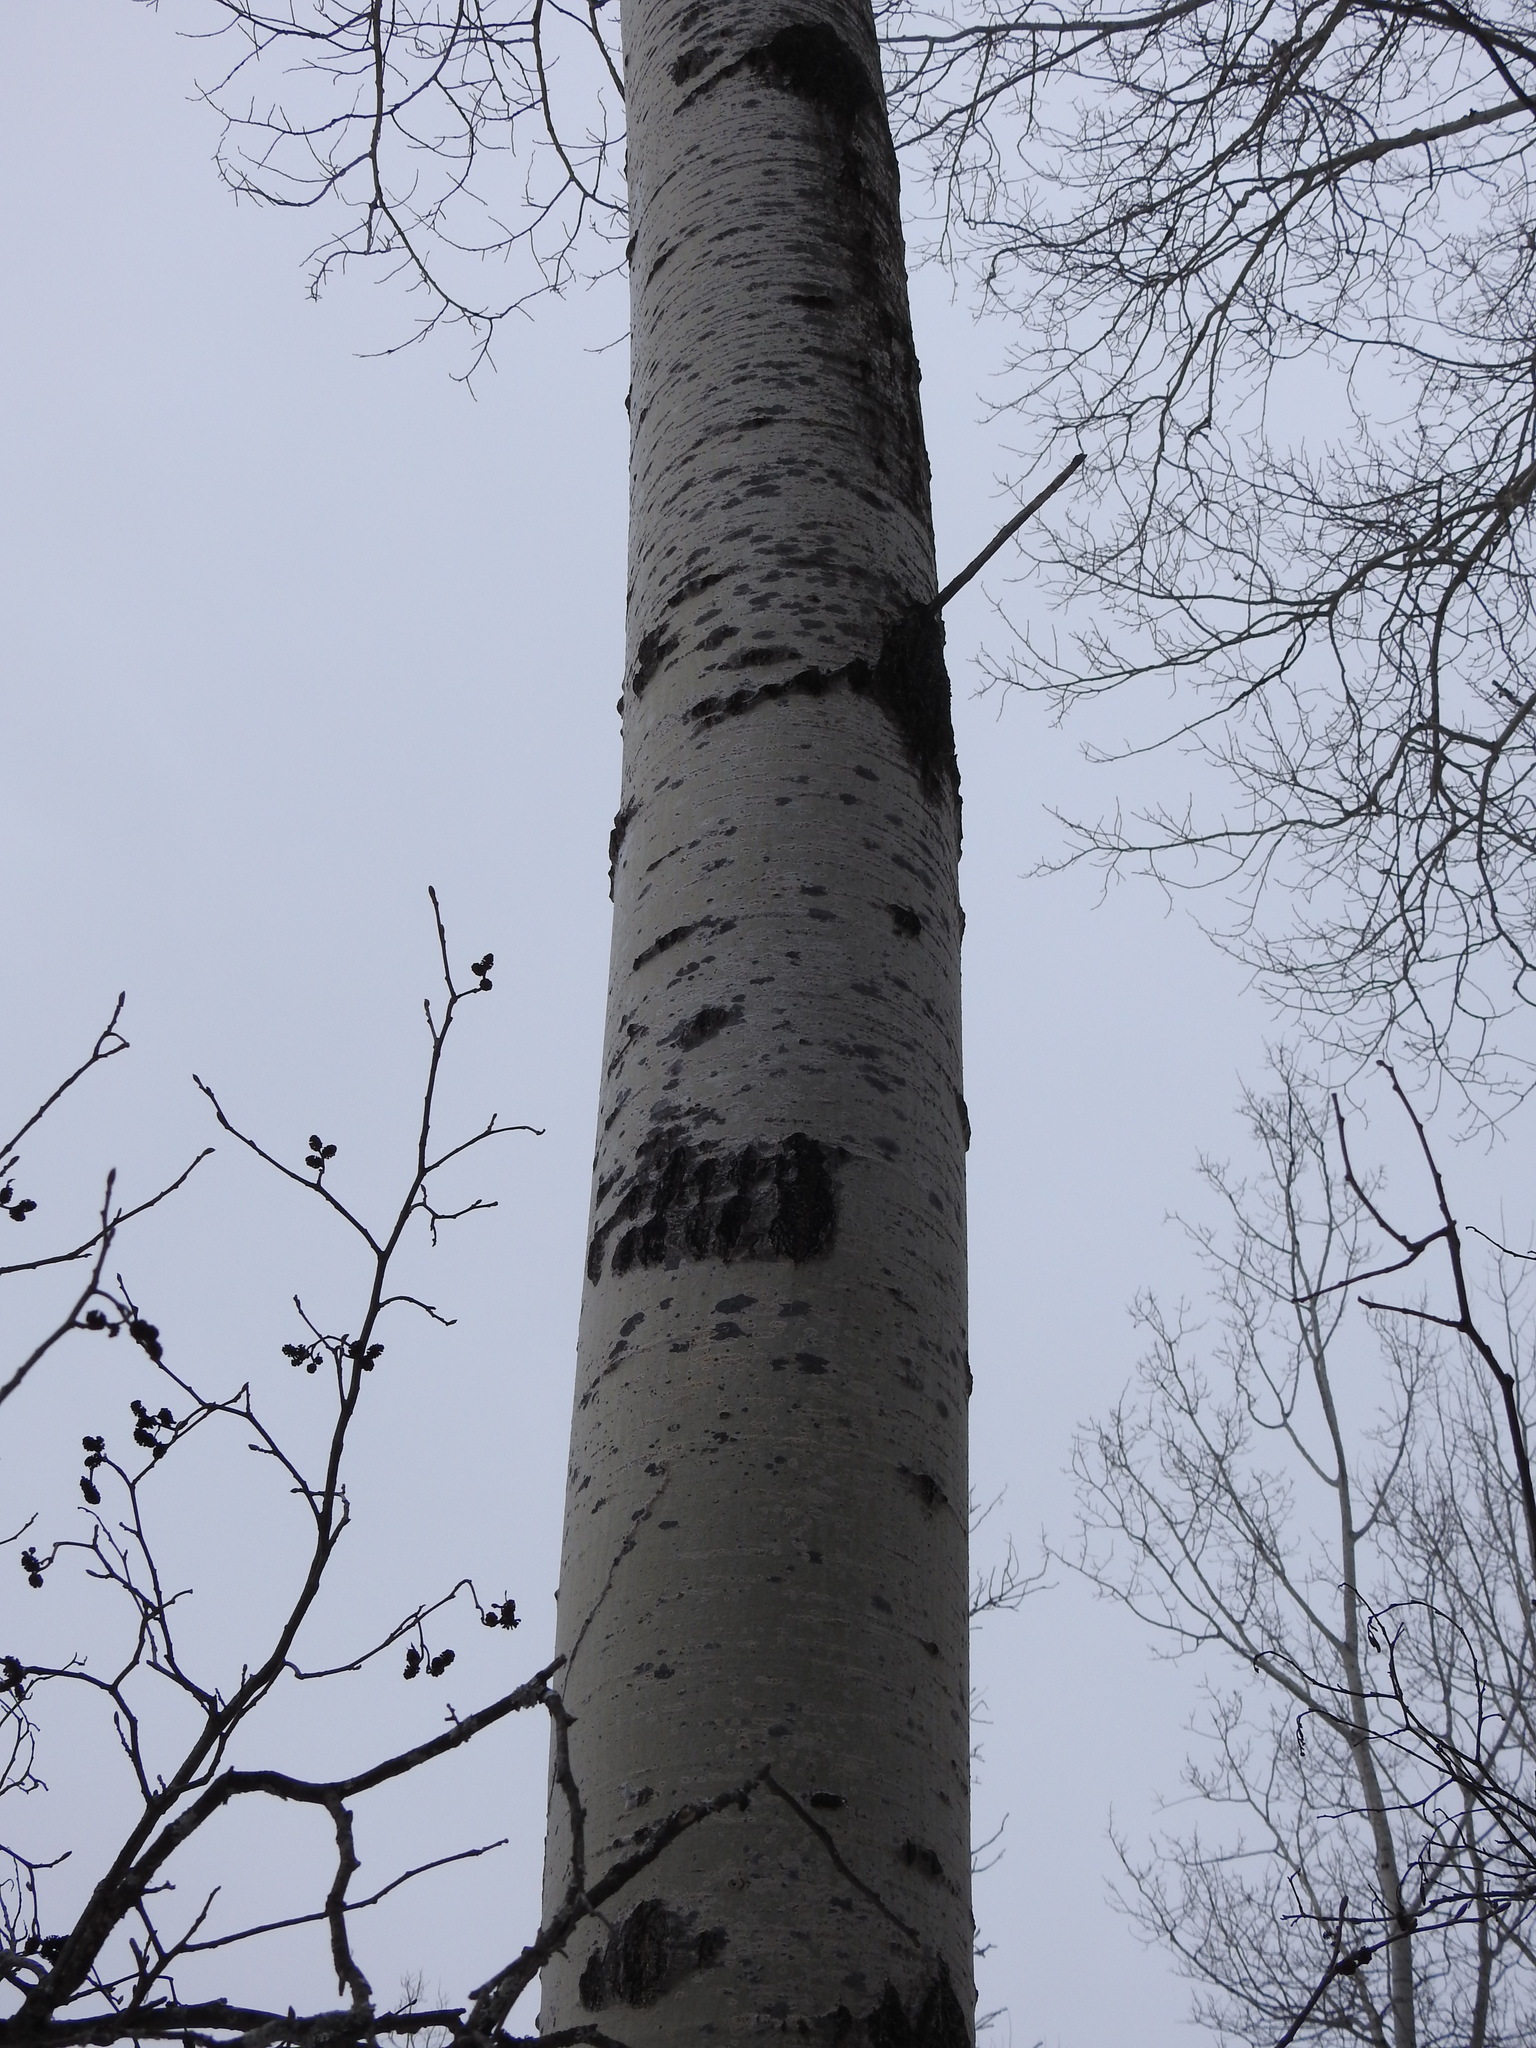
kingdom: Plantae
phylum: Tracheophyta
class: Magnoliopsida
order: Malpighiales
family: Salicaceae
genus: Populus
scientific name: Populus tremuloides
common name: Quaking aspen
